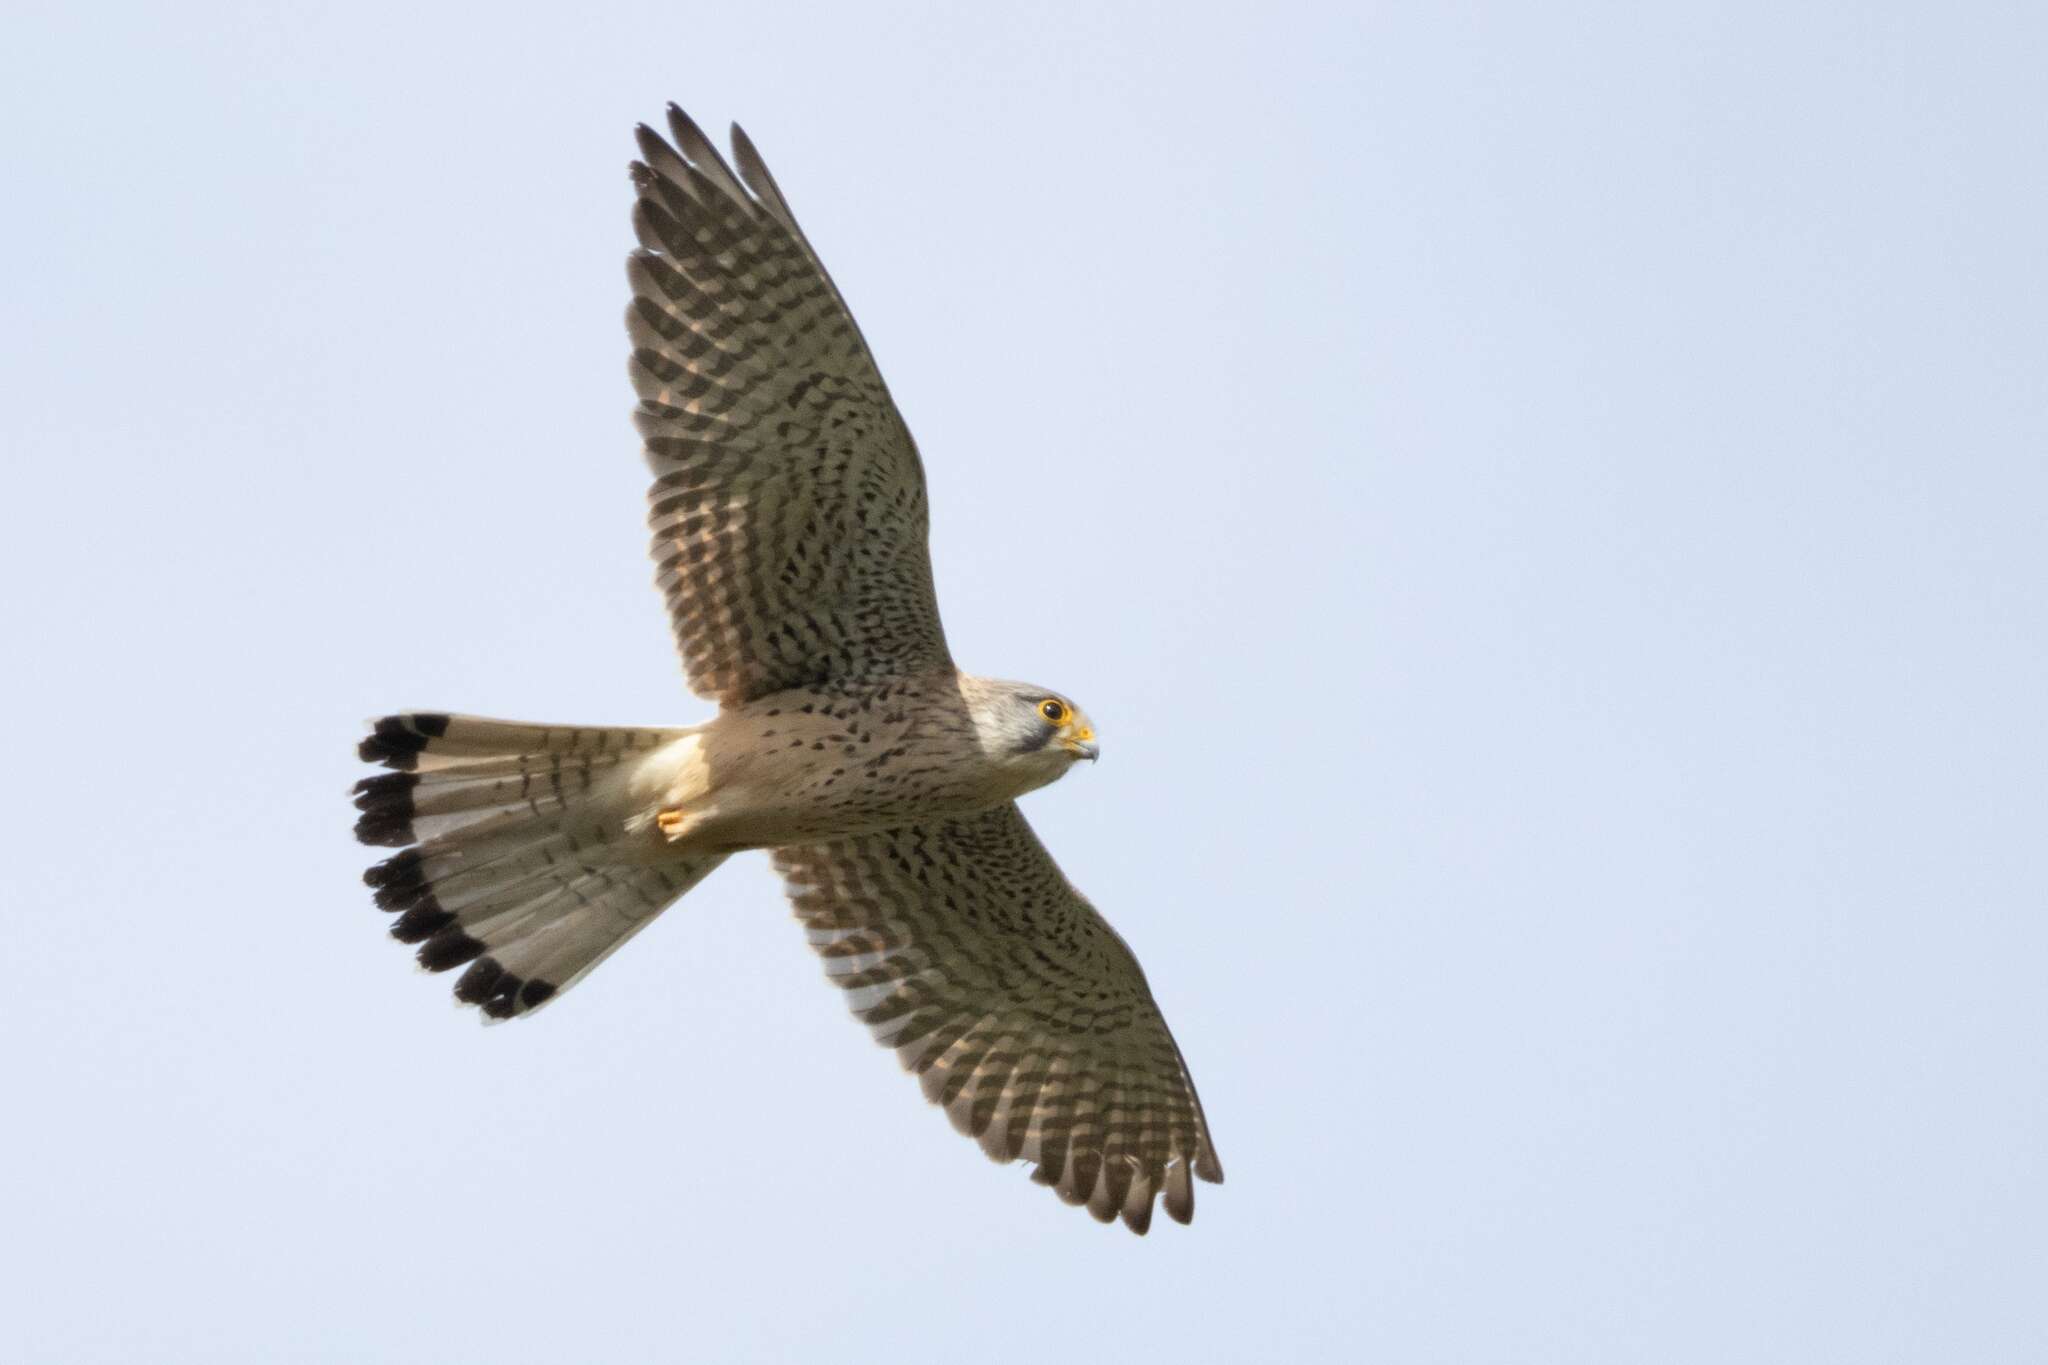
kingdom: Animalia
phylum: Chordata
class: Aves
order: Falconiformes
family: Falconidae
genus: Falco
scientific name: Falco tinnunculus
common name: Common kestrel
